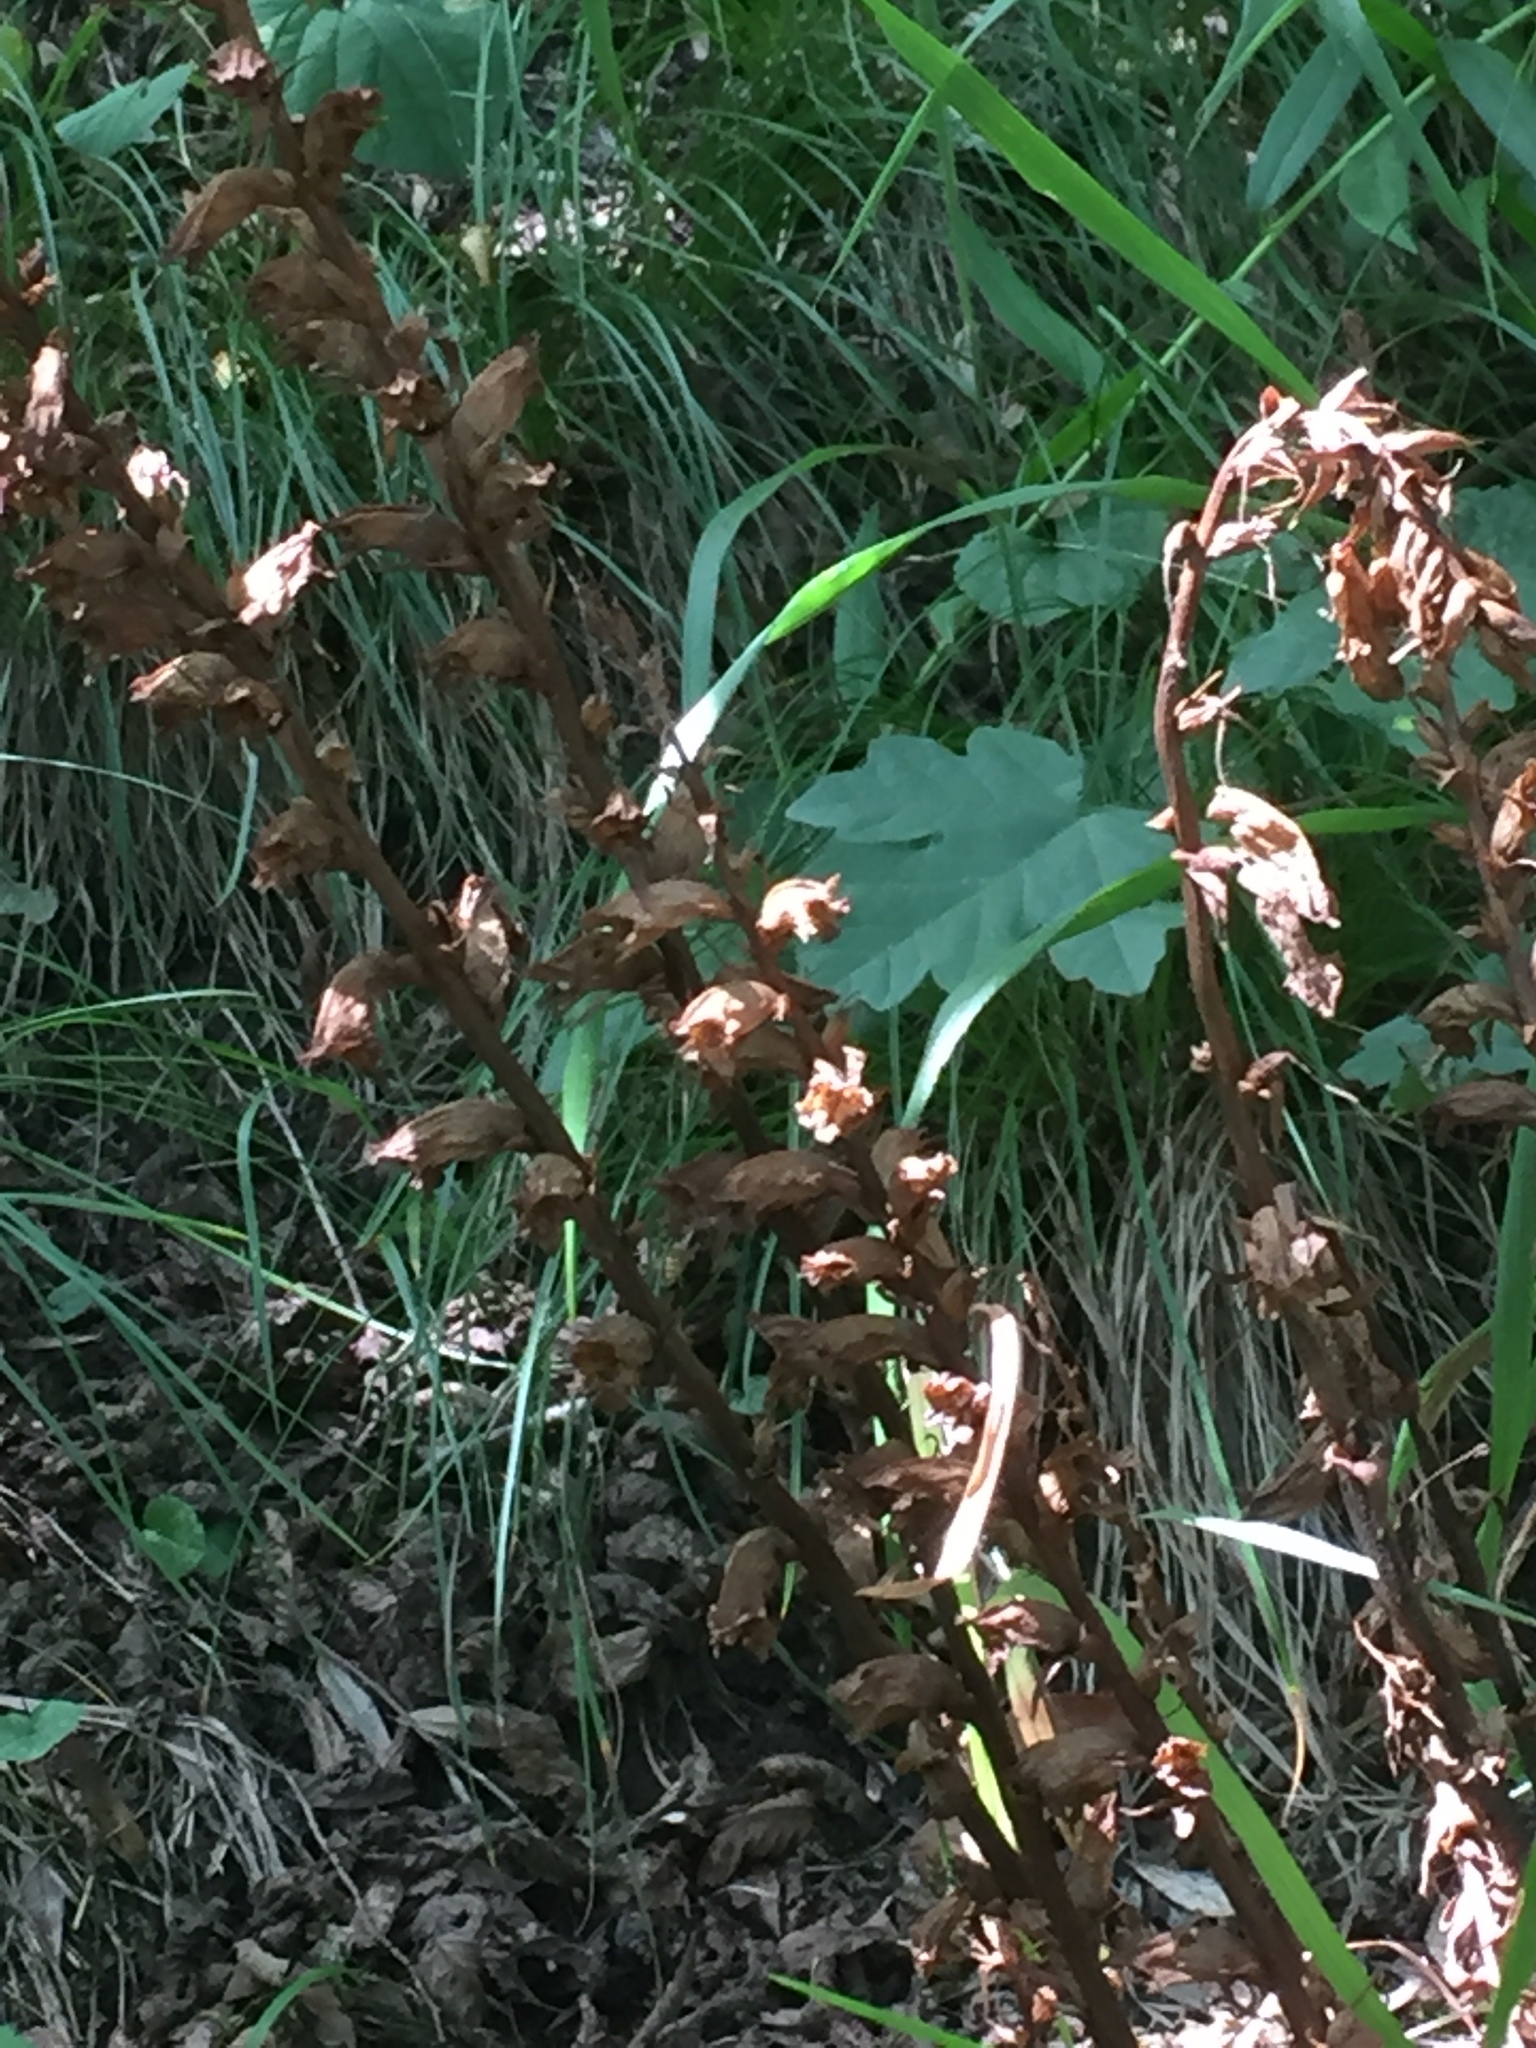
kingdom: Plantae
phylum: Tracheophyta
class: Liliopsida
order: Asparagales
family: Orchidaceae
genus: Neottia
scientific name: Neottia nidus-avis
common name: Bird's-nest orchid
